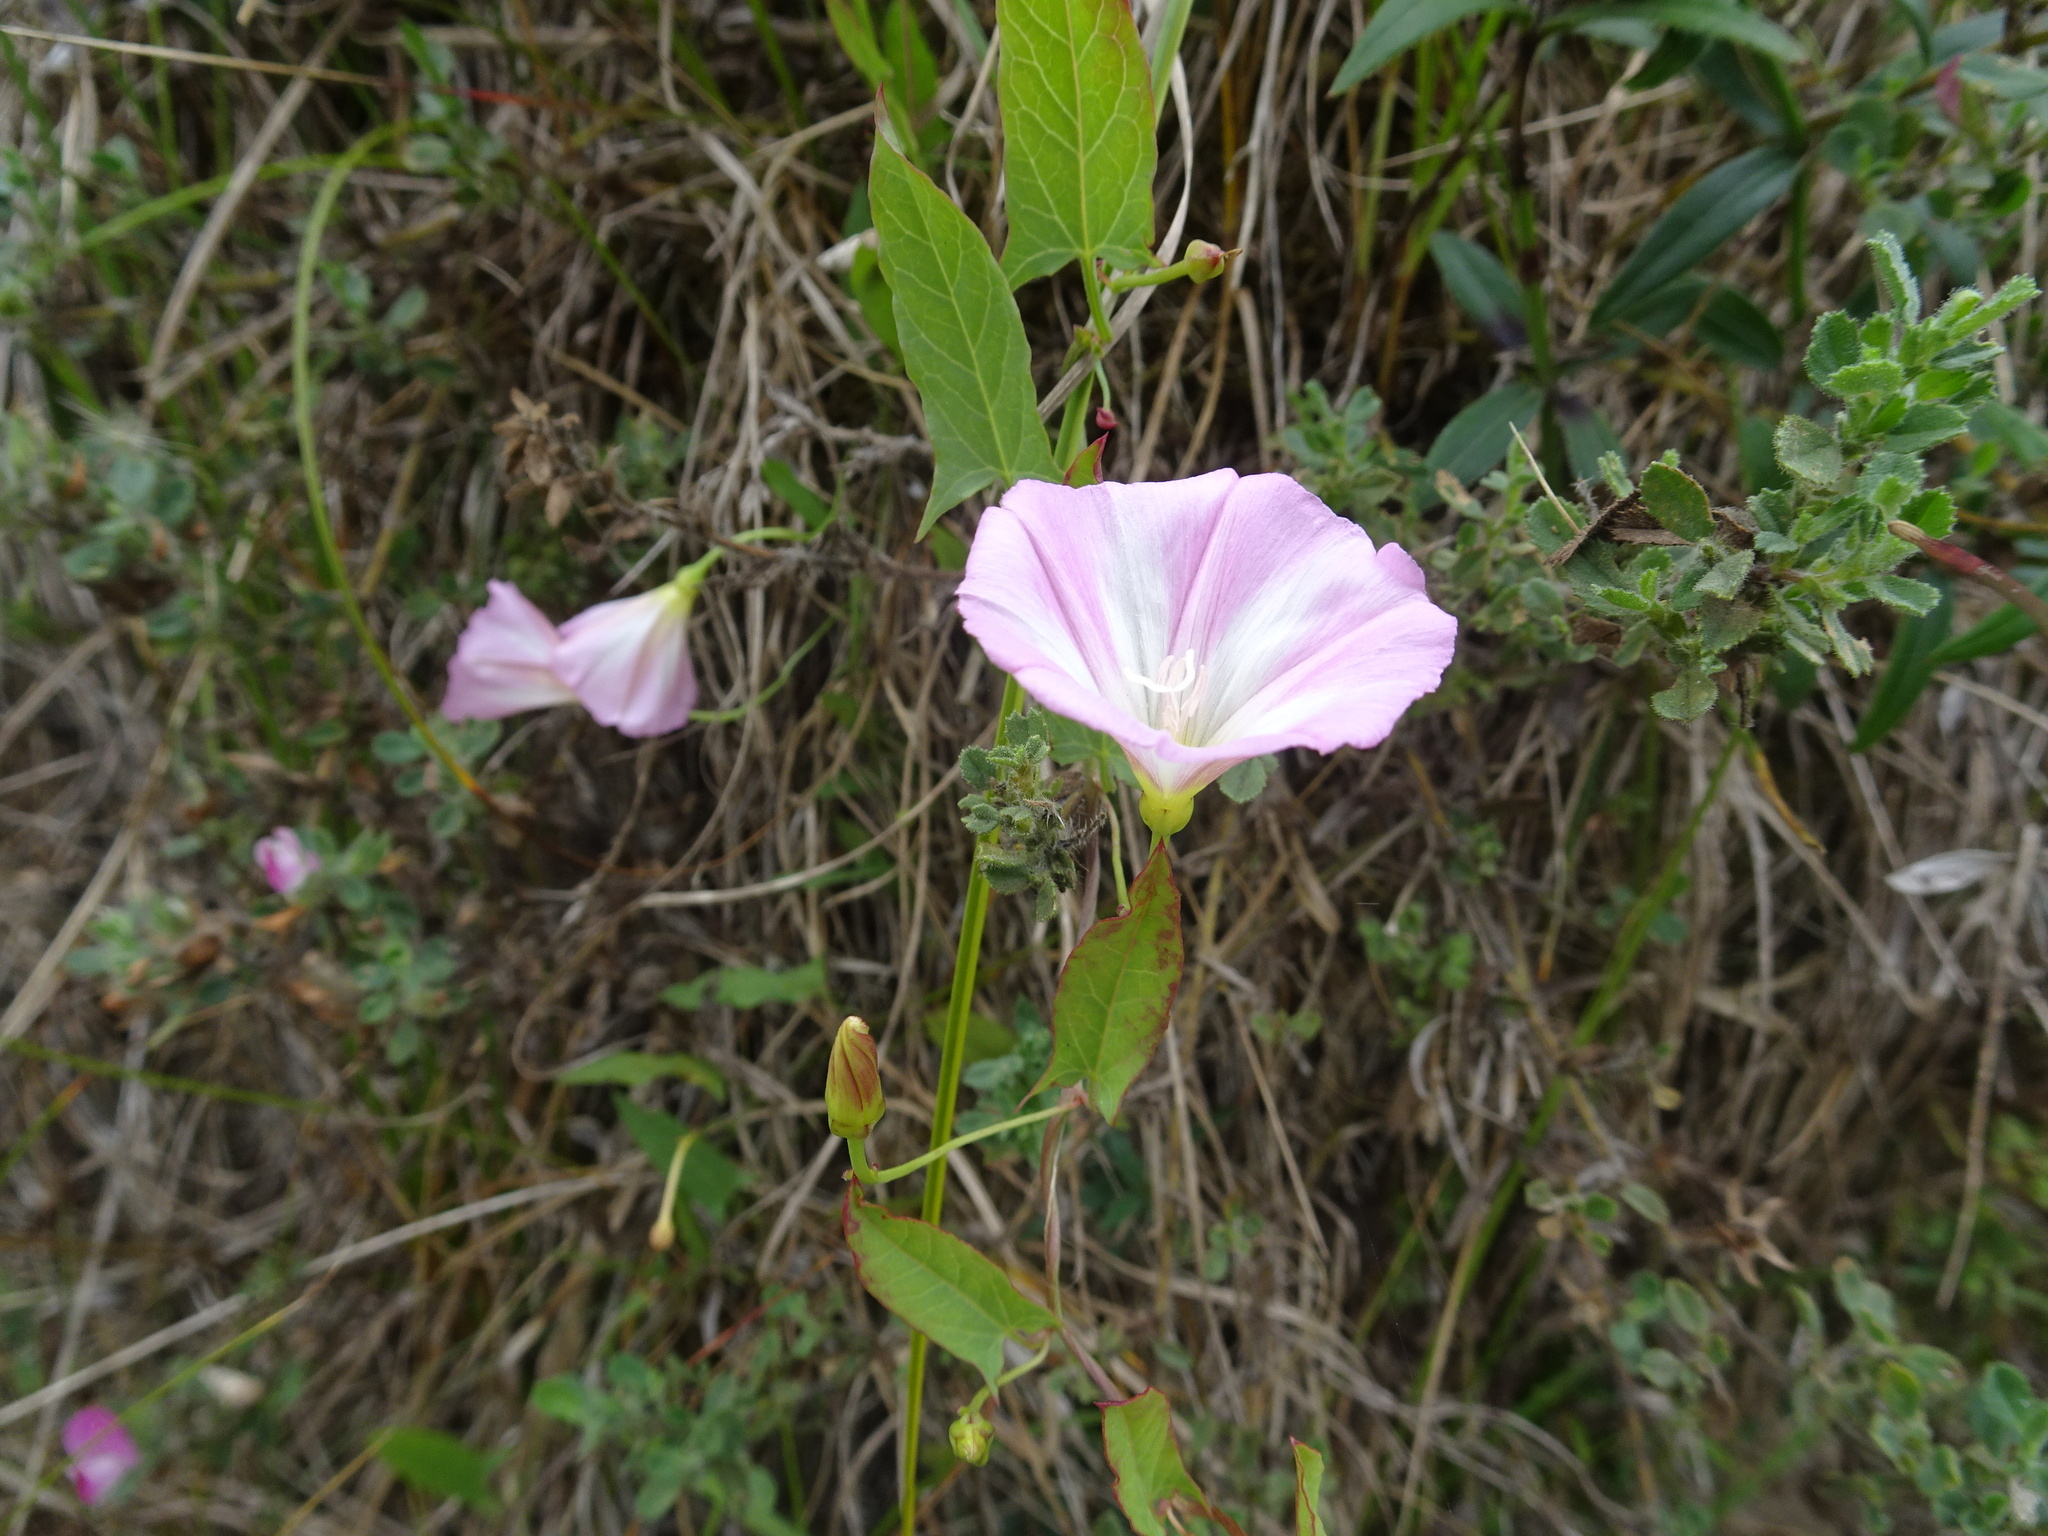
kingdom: Plantae
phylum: Tracheophyta
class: Magnoliopsida
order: Solanales
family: Convolvulaceae
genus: Convolvulus
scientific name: Convolvulus arvensis
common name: Field bindweed
